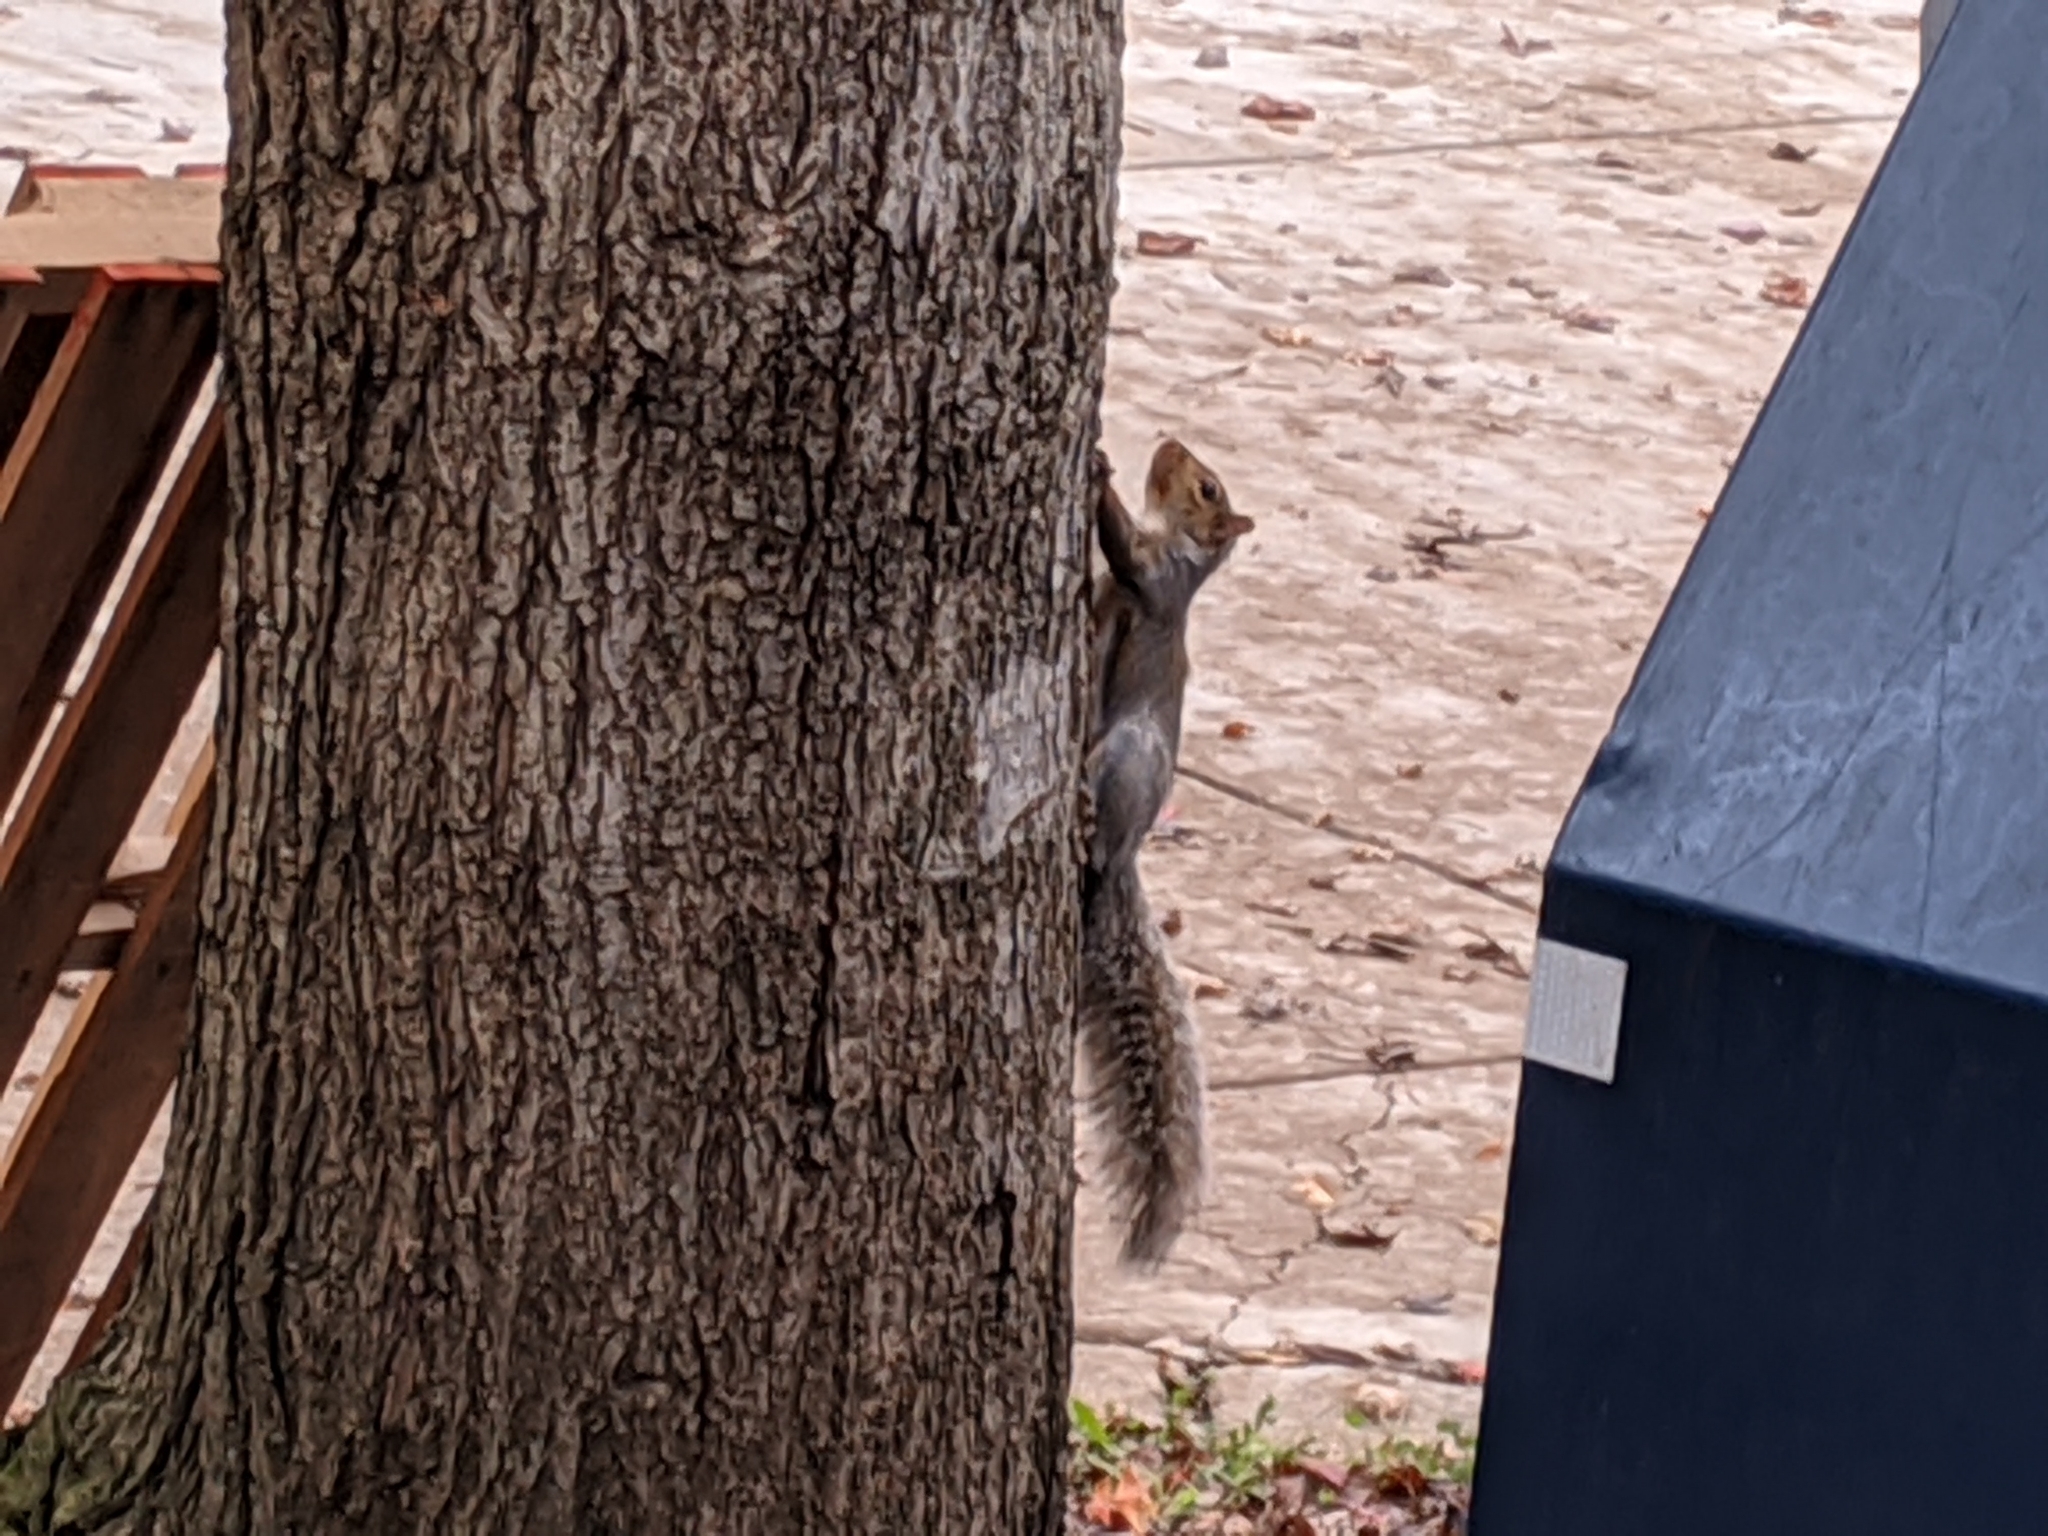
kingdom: Animalia
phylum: Chordata
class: Mammalia
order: Rodentia
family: Sciuridae
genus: Sciurus
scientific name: Sciurus carolinensis
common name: Eastern gray squirrel
